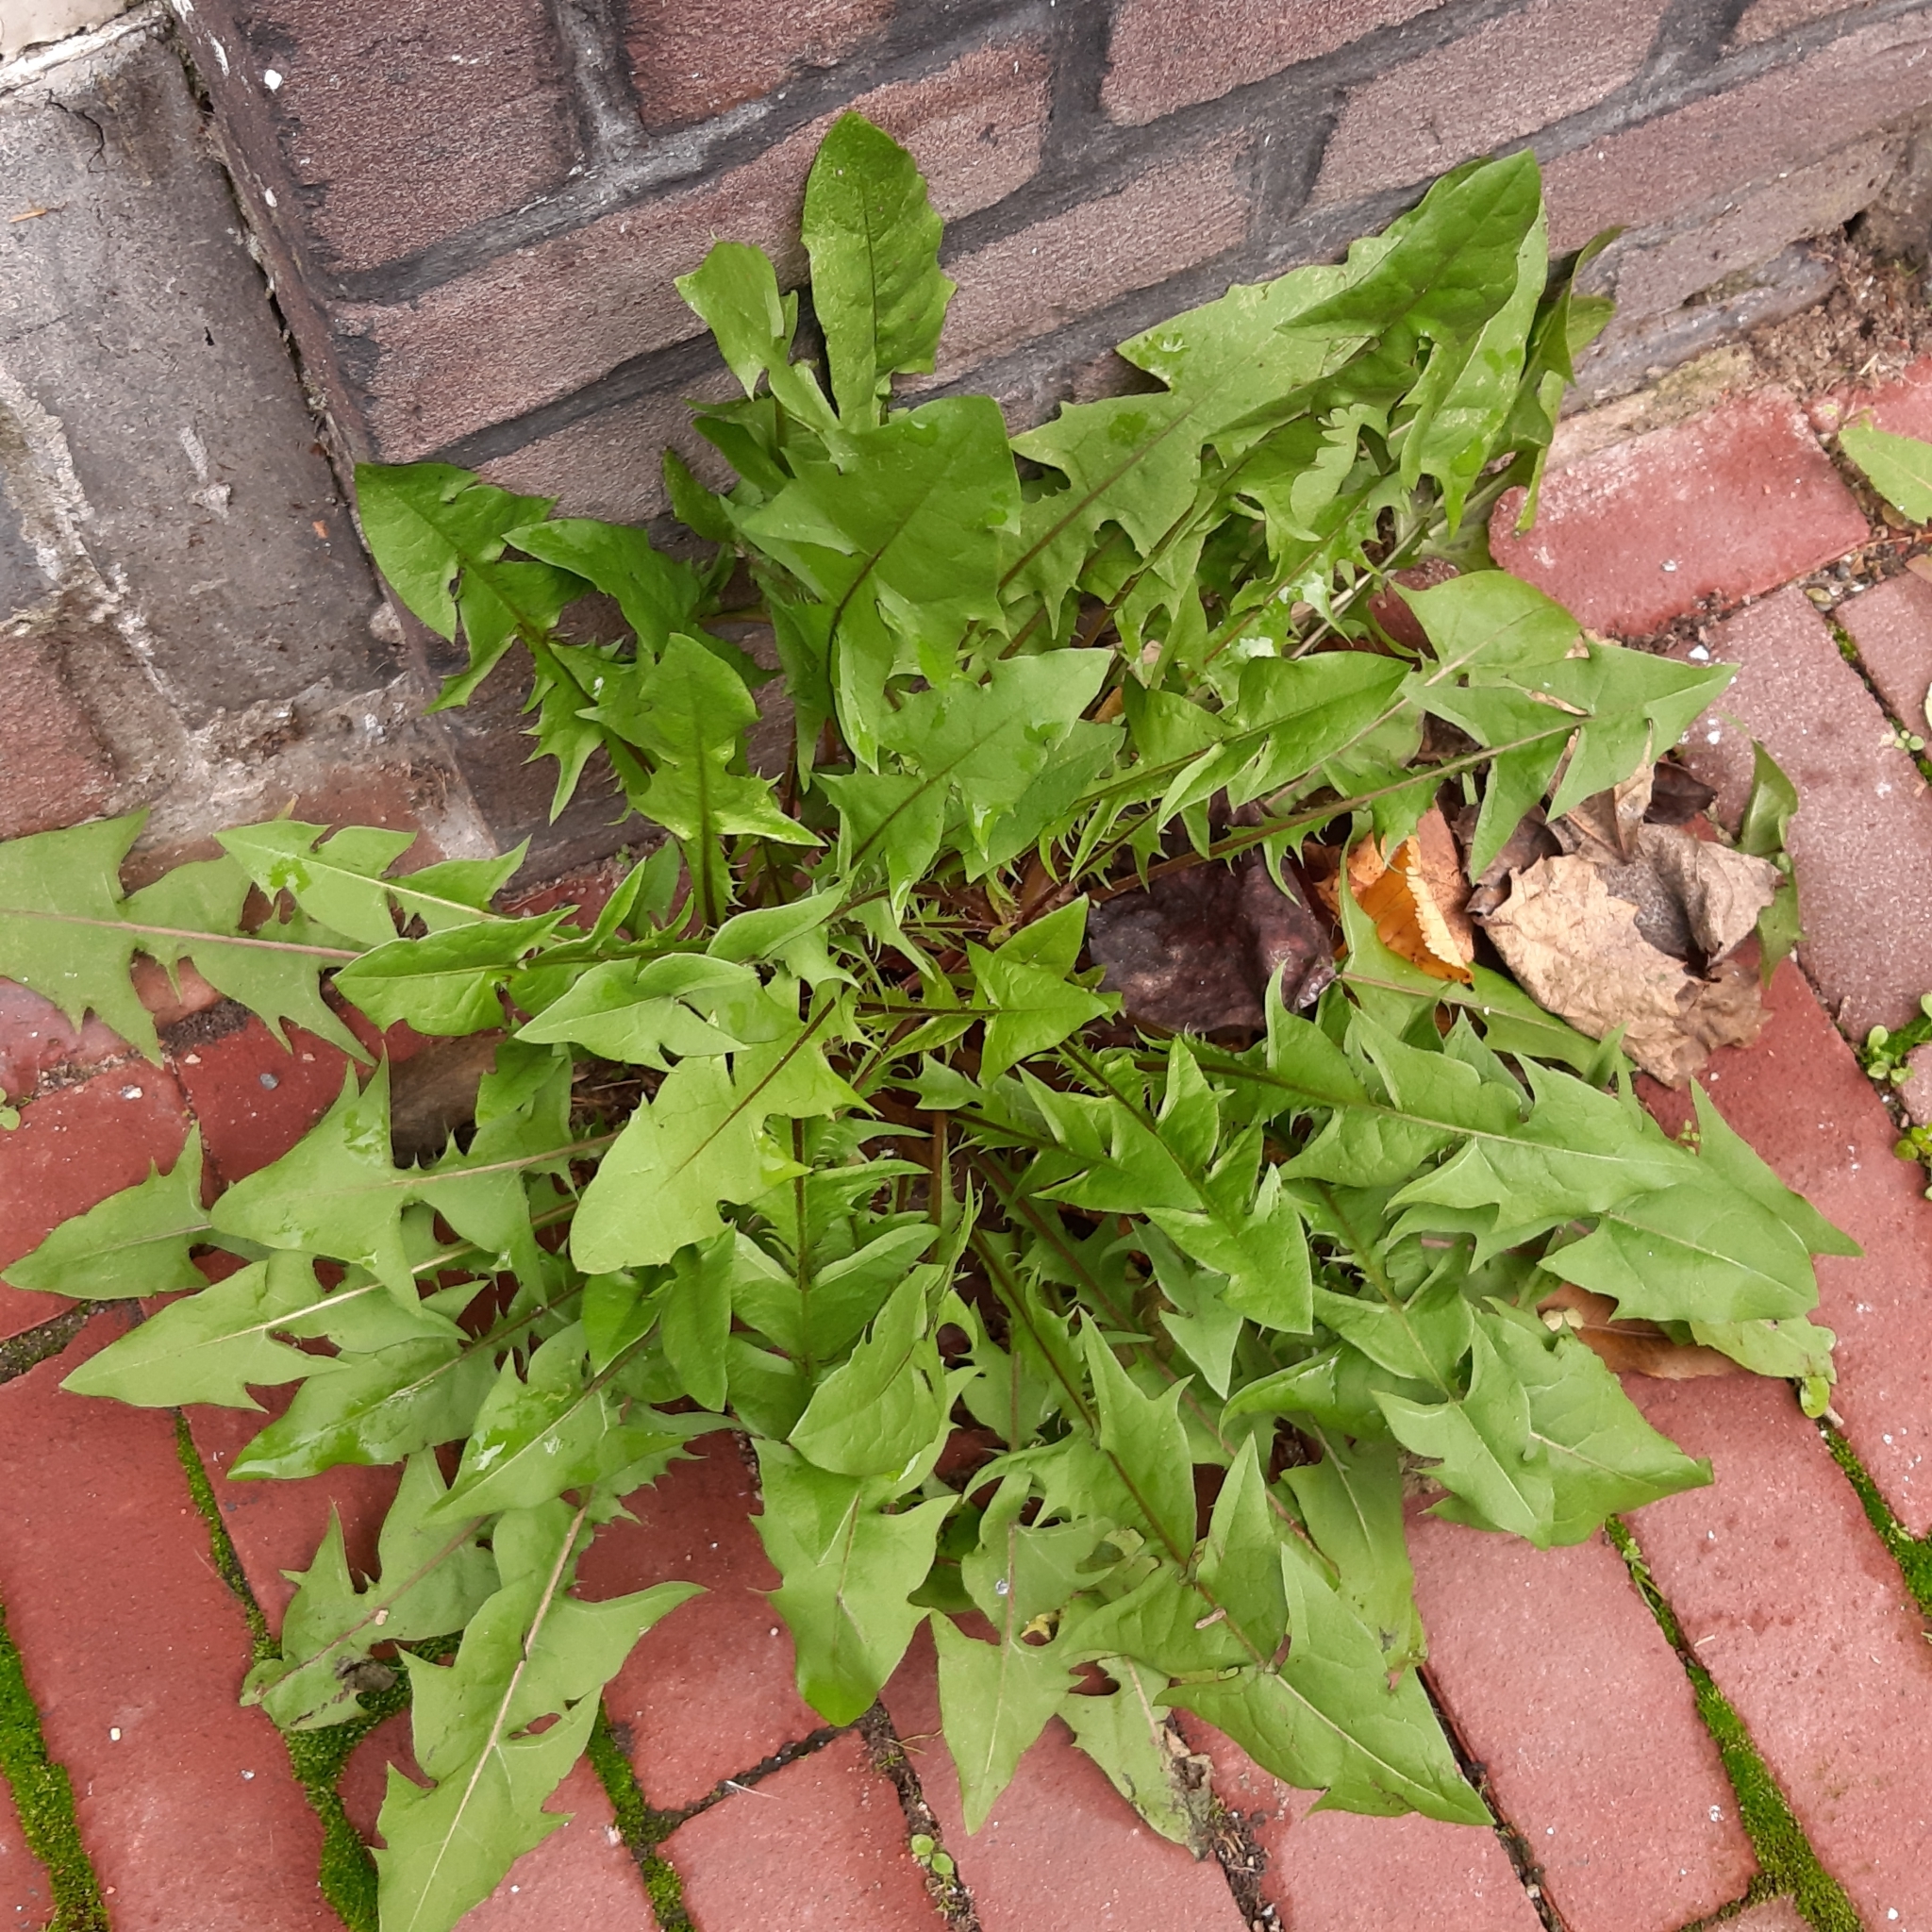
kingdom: Plantae
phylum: Tracheophyta
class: Magnoliopsida
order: Asterales
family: Asteraceae
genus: Taraxacum
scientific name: Taraxacum officinale
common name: Common dandelion
